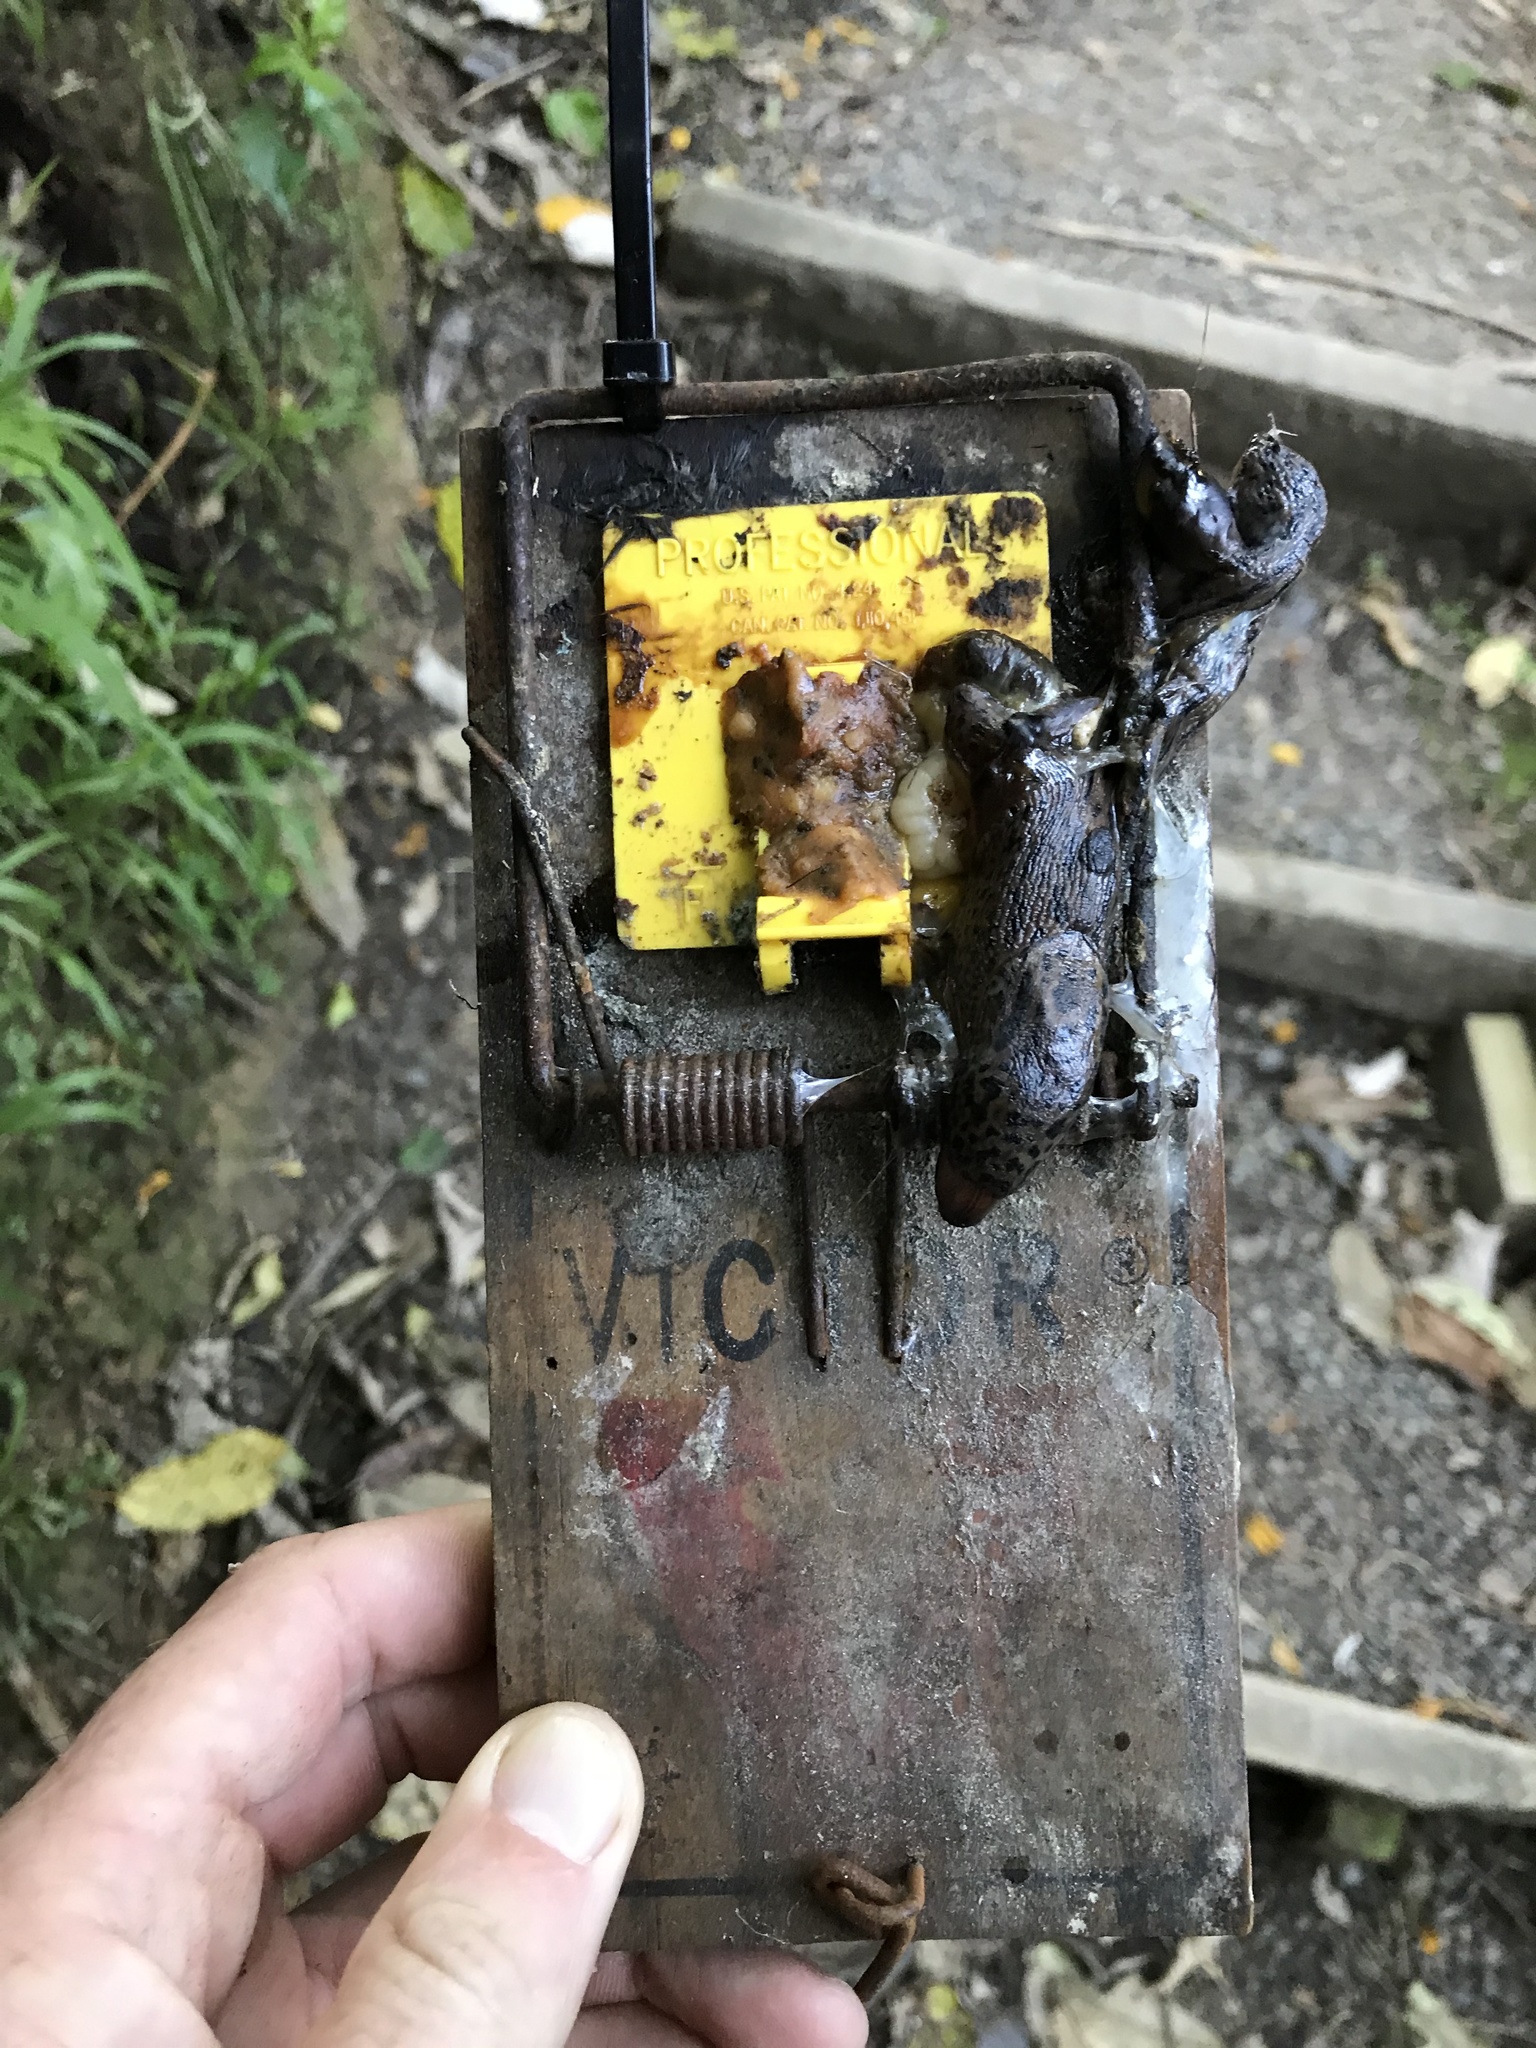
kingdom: Animalia
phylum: Mollusca
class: Gastropoda
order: Stylommatophora
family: Limacidae
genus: Limax
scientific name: Limax maximus
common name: Great grey slug
